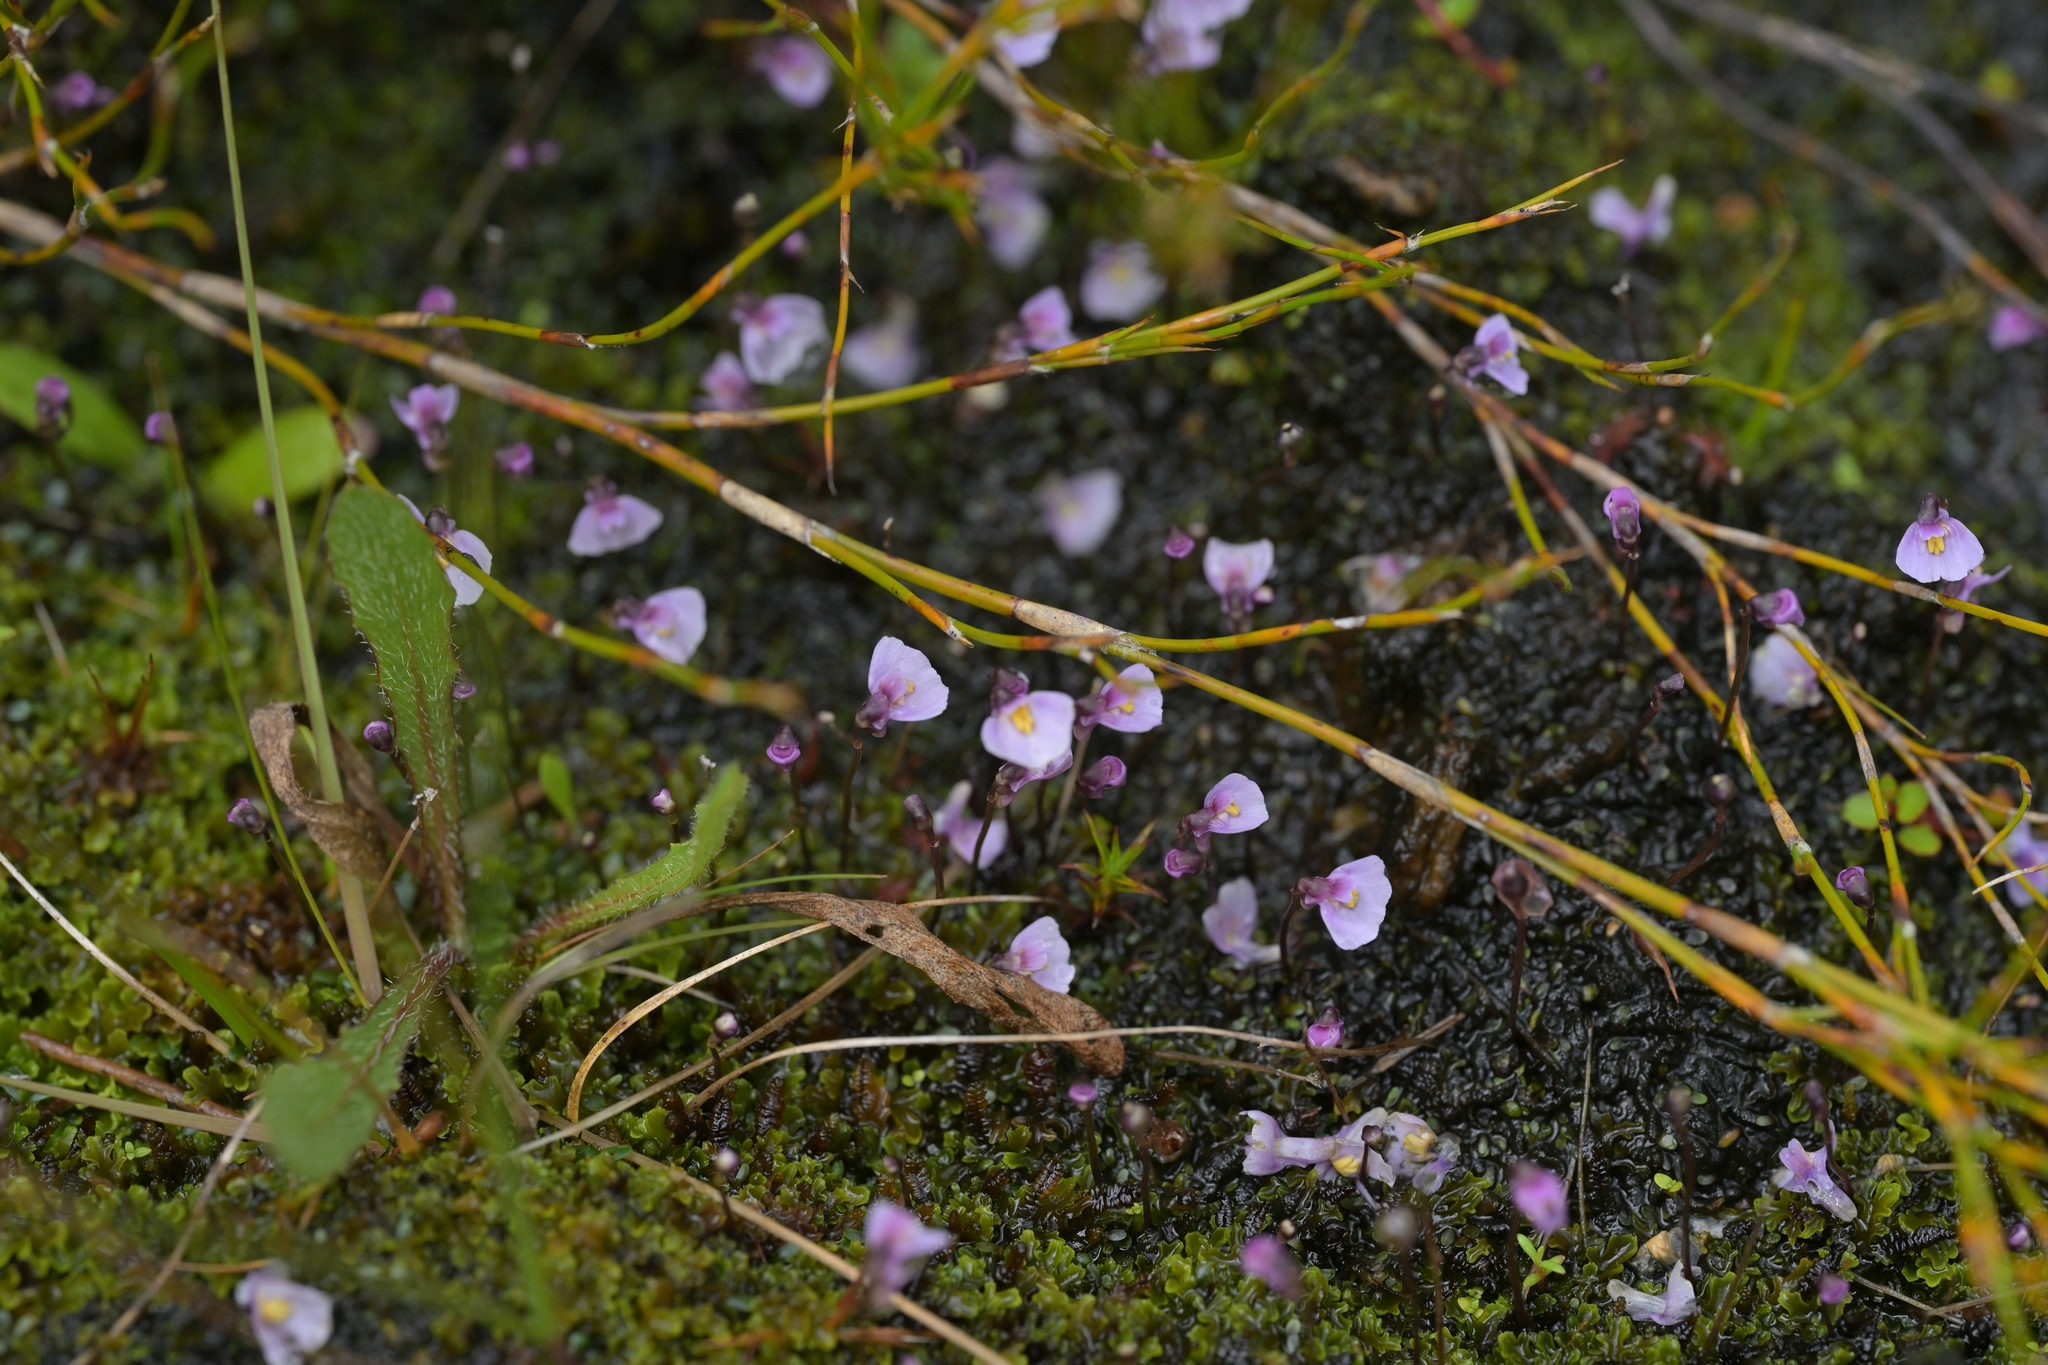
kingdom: Plantae
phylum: Tracheophyta
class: Magnoliopsida
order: Lamiales
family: Lentibulariaceae
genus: Utricularia
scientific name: Utricularia dichotoma
